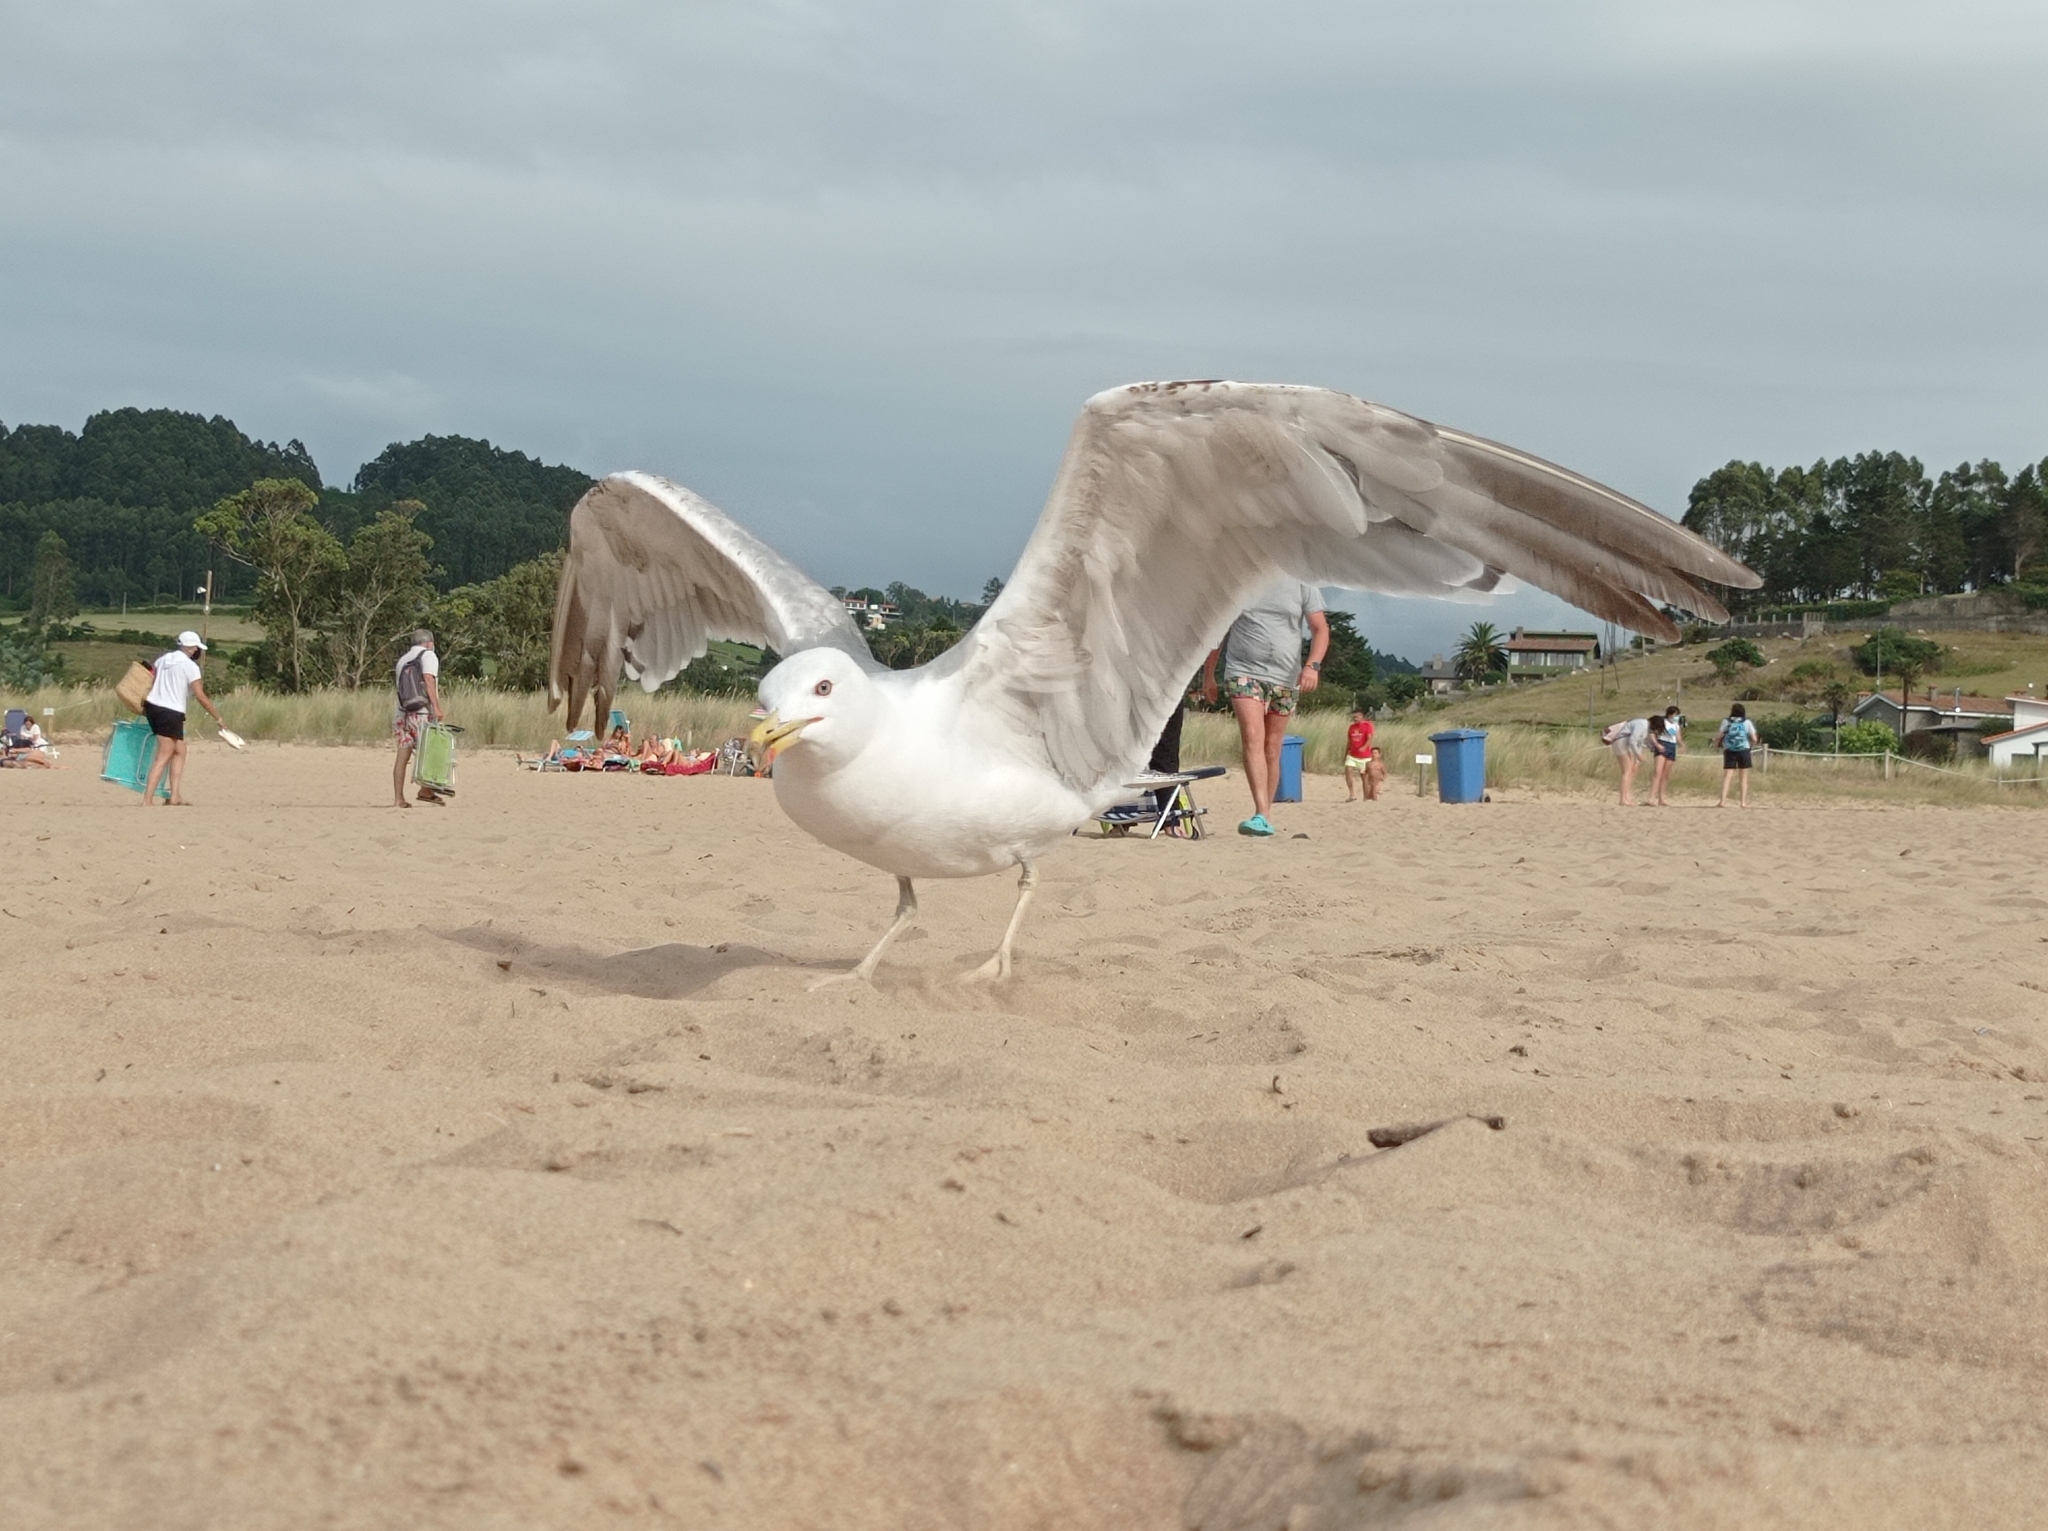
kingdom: Animalia
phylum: Chordata
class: Aves
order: Charadriiformes
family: Laridae
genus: Larus
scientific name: Larus michahellis
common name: Yellow-legged gull
